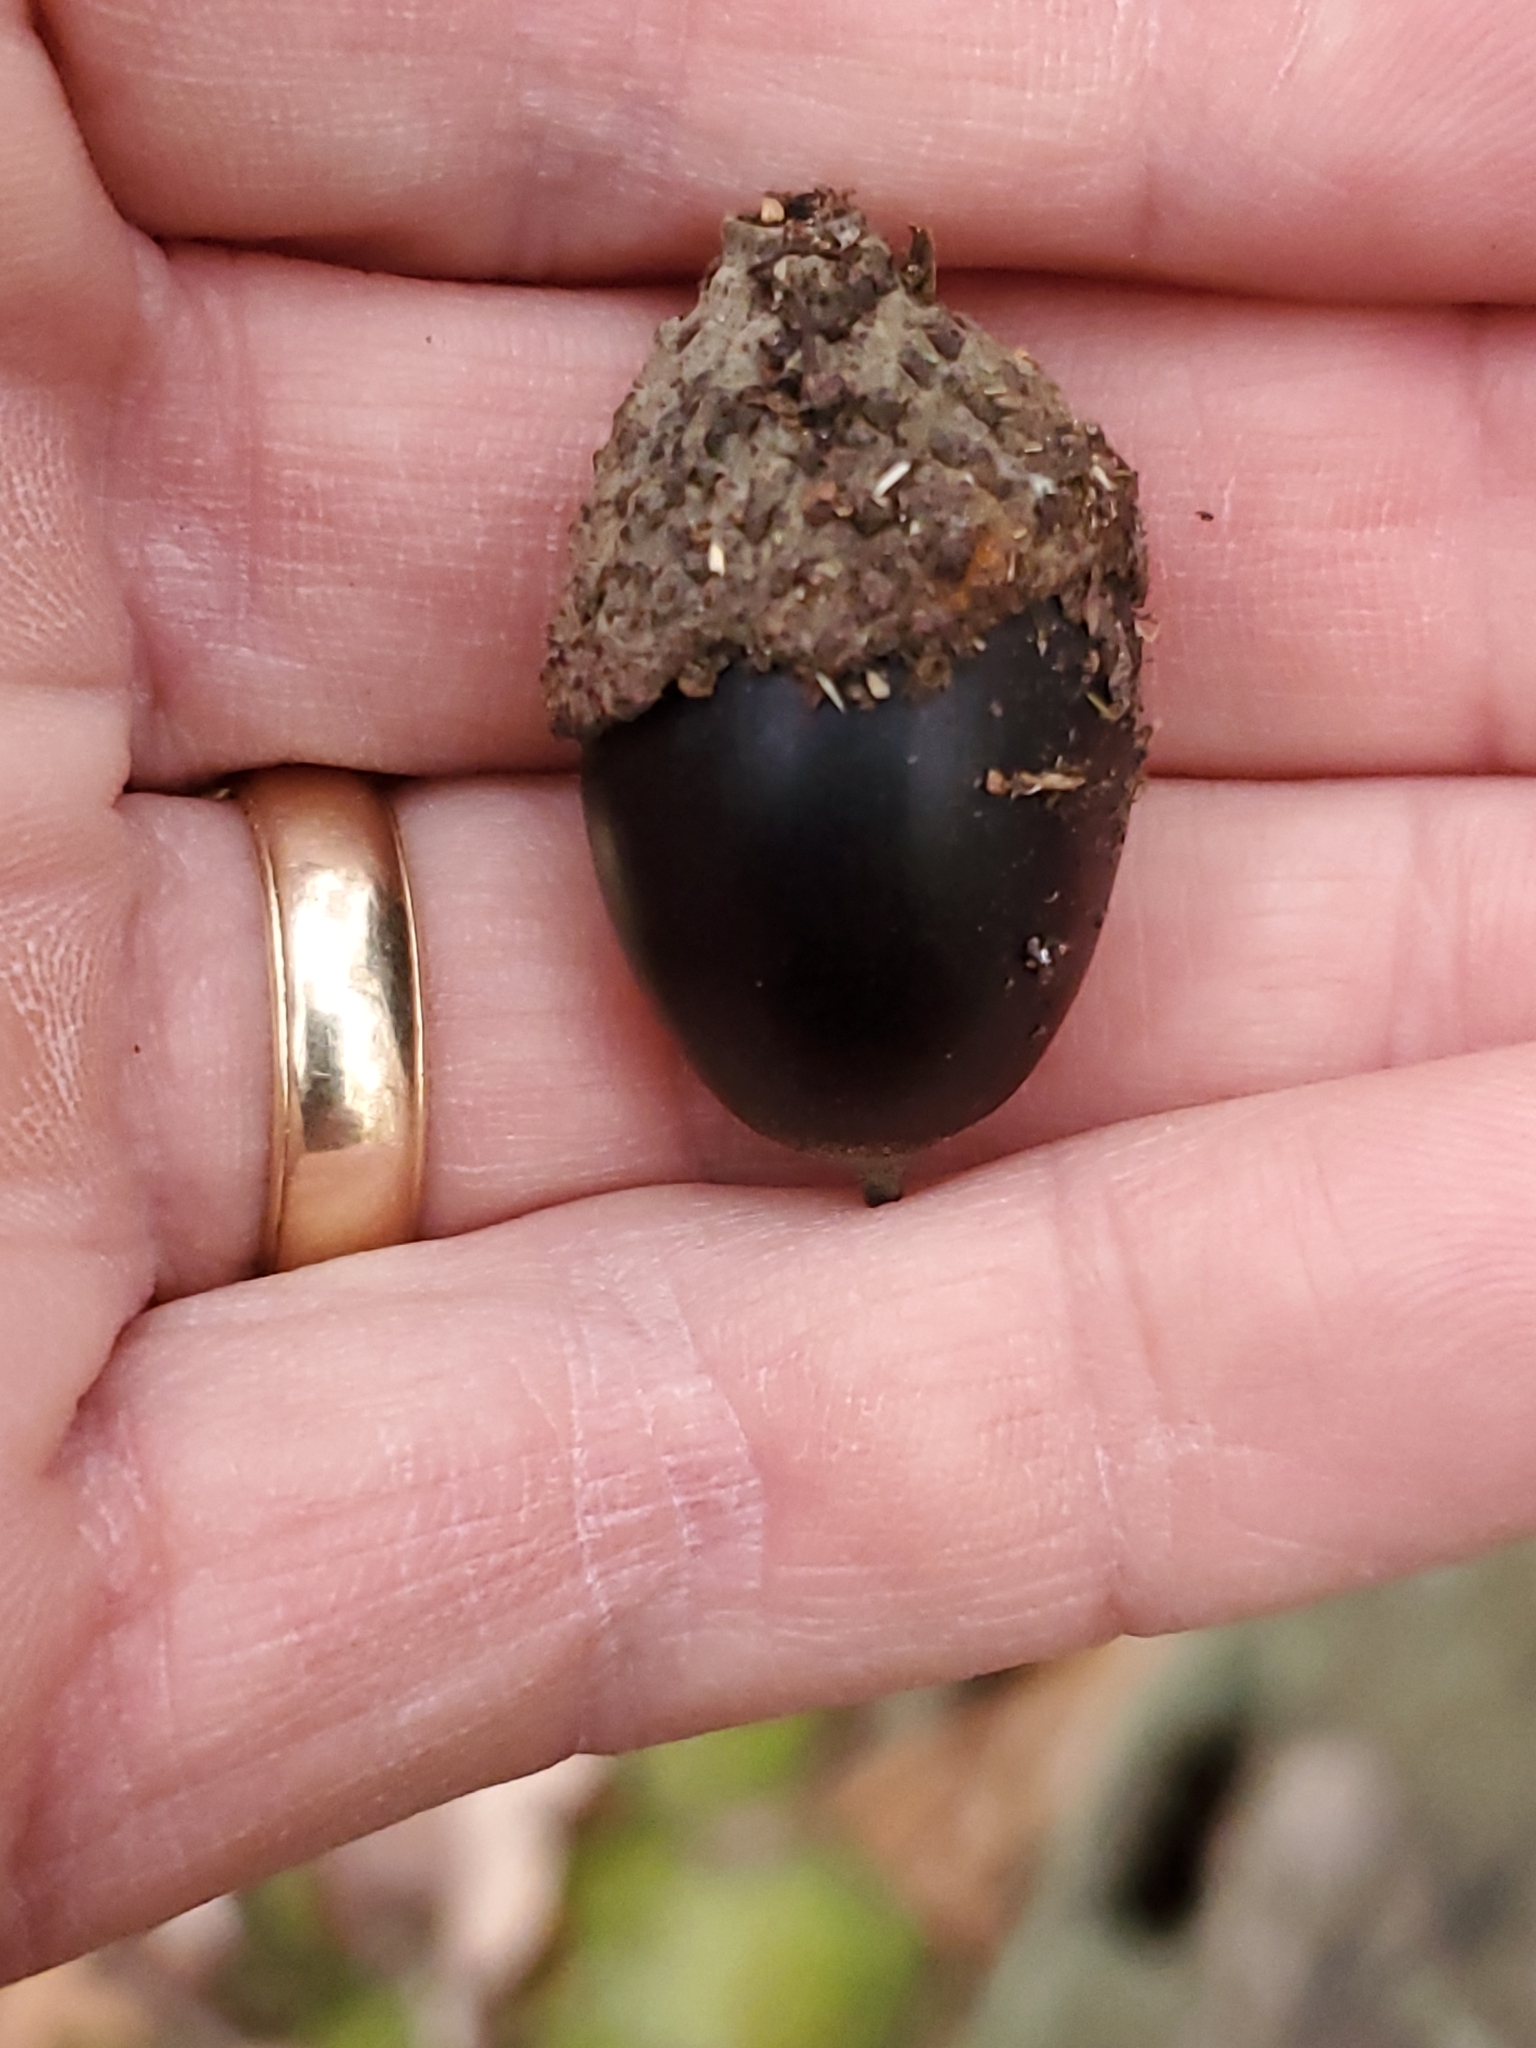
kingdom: Plantae
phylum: Tracheophyta
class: Magnoliopsida
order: Fagales
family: Fagaceae
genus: Quercus
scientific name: Quercus montana
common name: Chestnut oak
